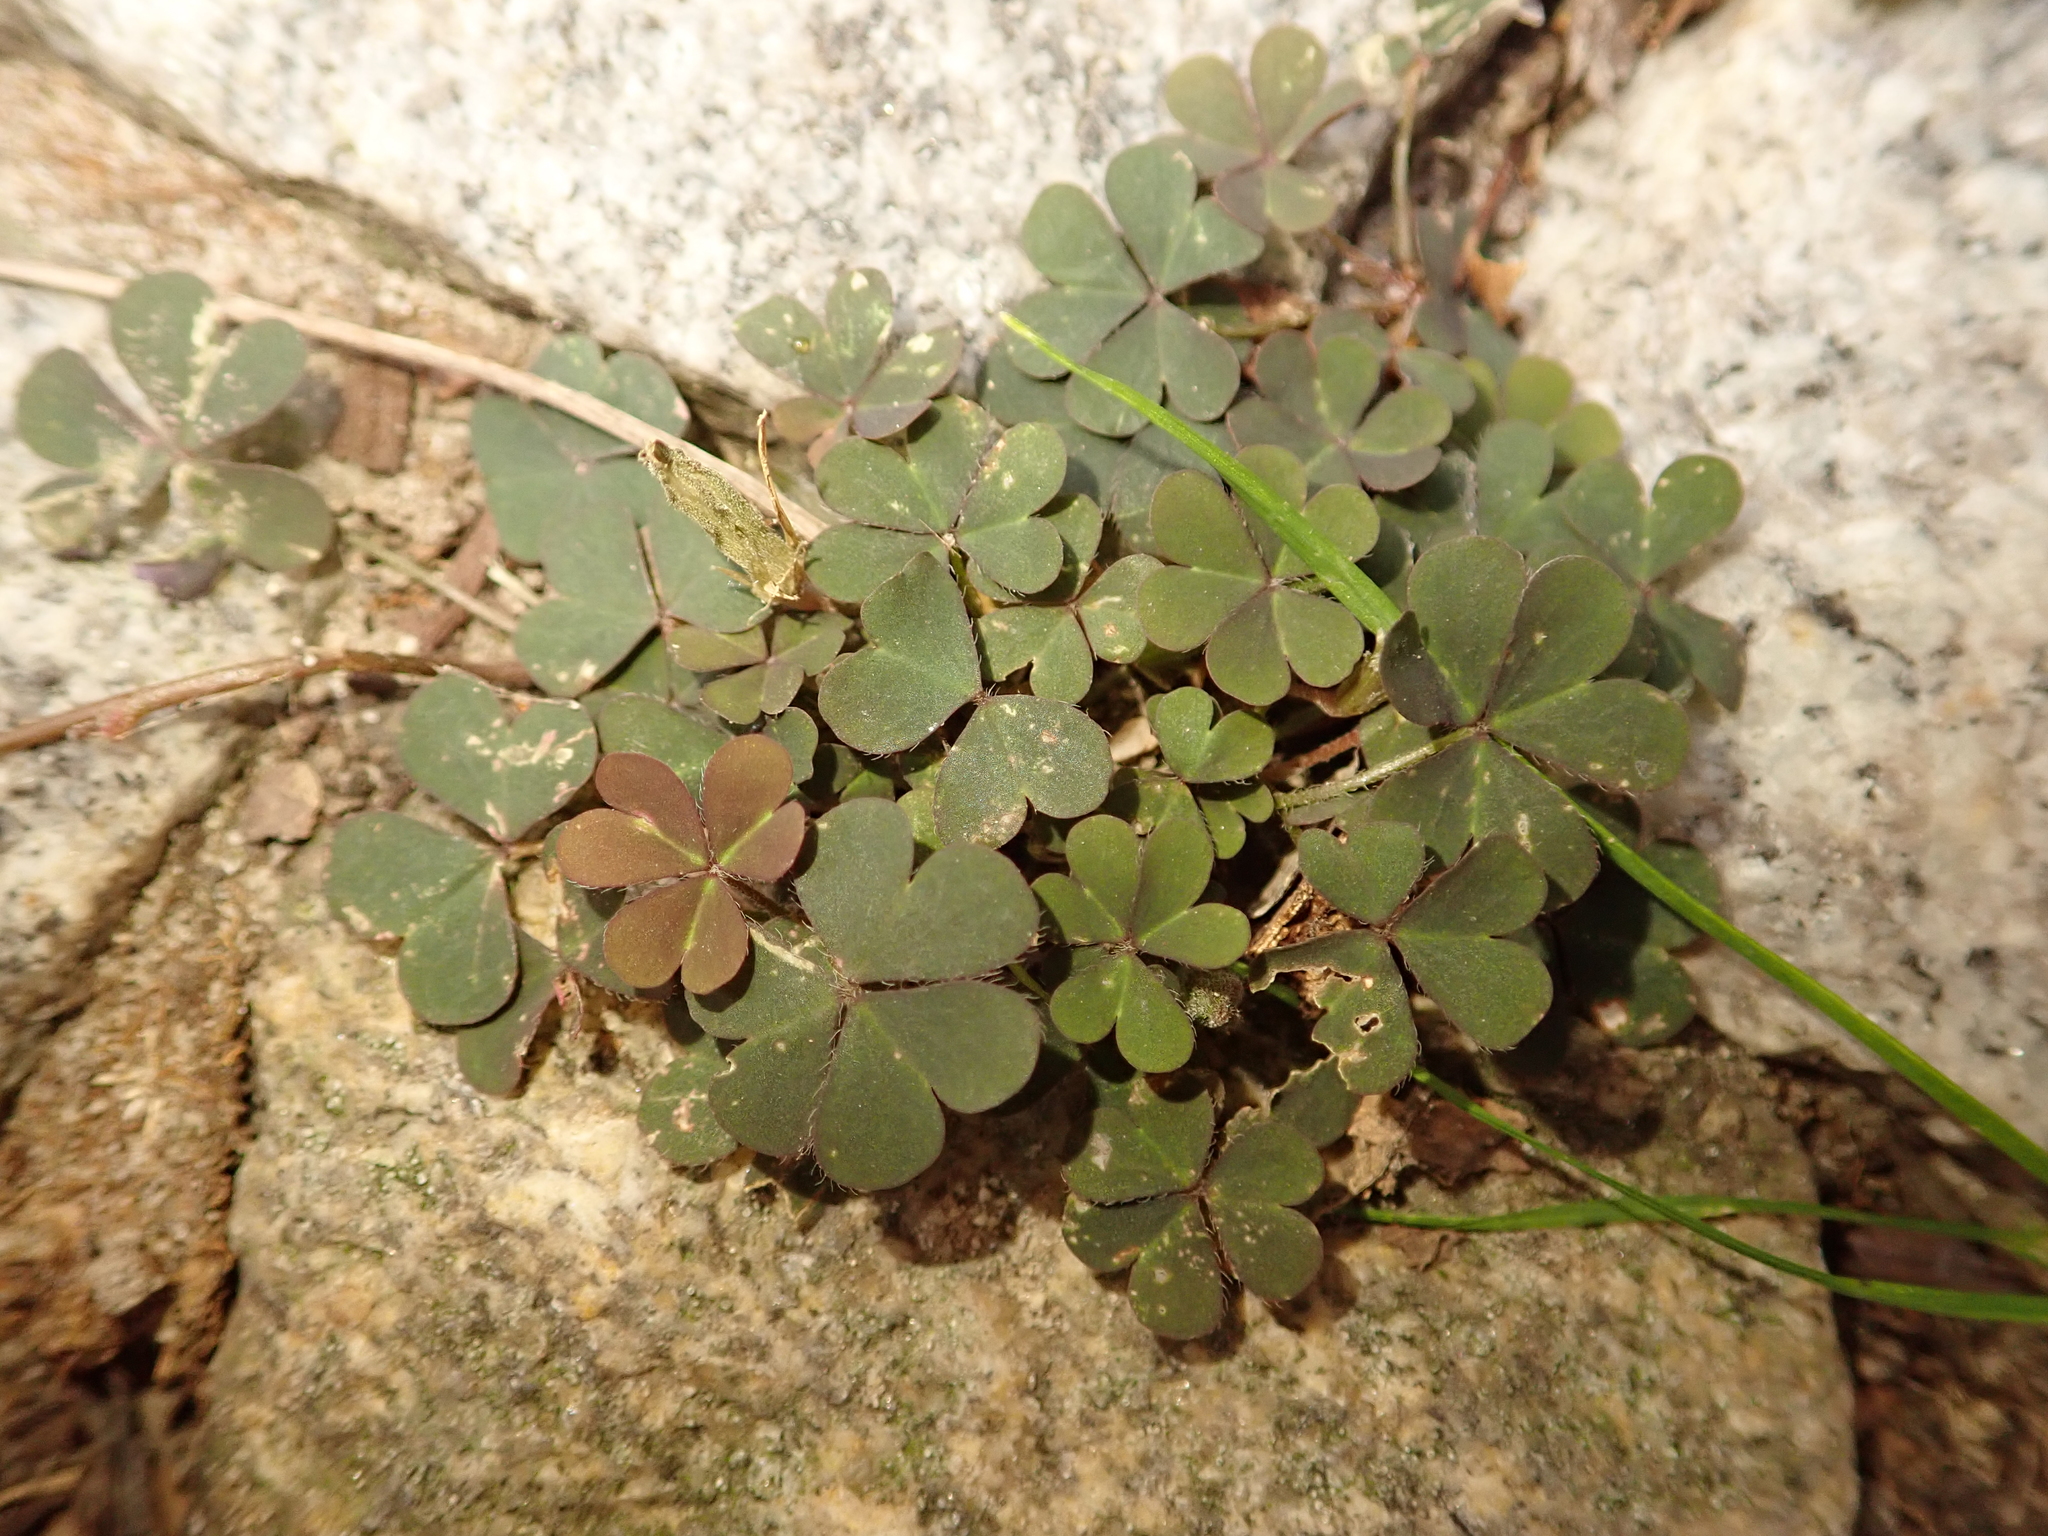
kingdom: Plantae
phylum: Tracheophyta
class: Magnoliopsida
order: Oxalidales
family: Oxalidaceae
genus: Oxalis
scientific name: Oxalis corniculata
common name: Procumbent yellow-sorrel
